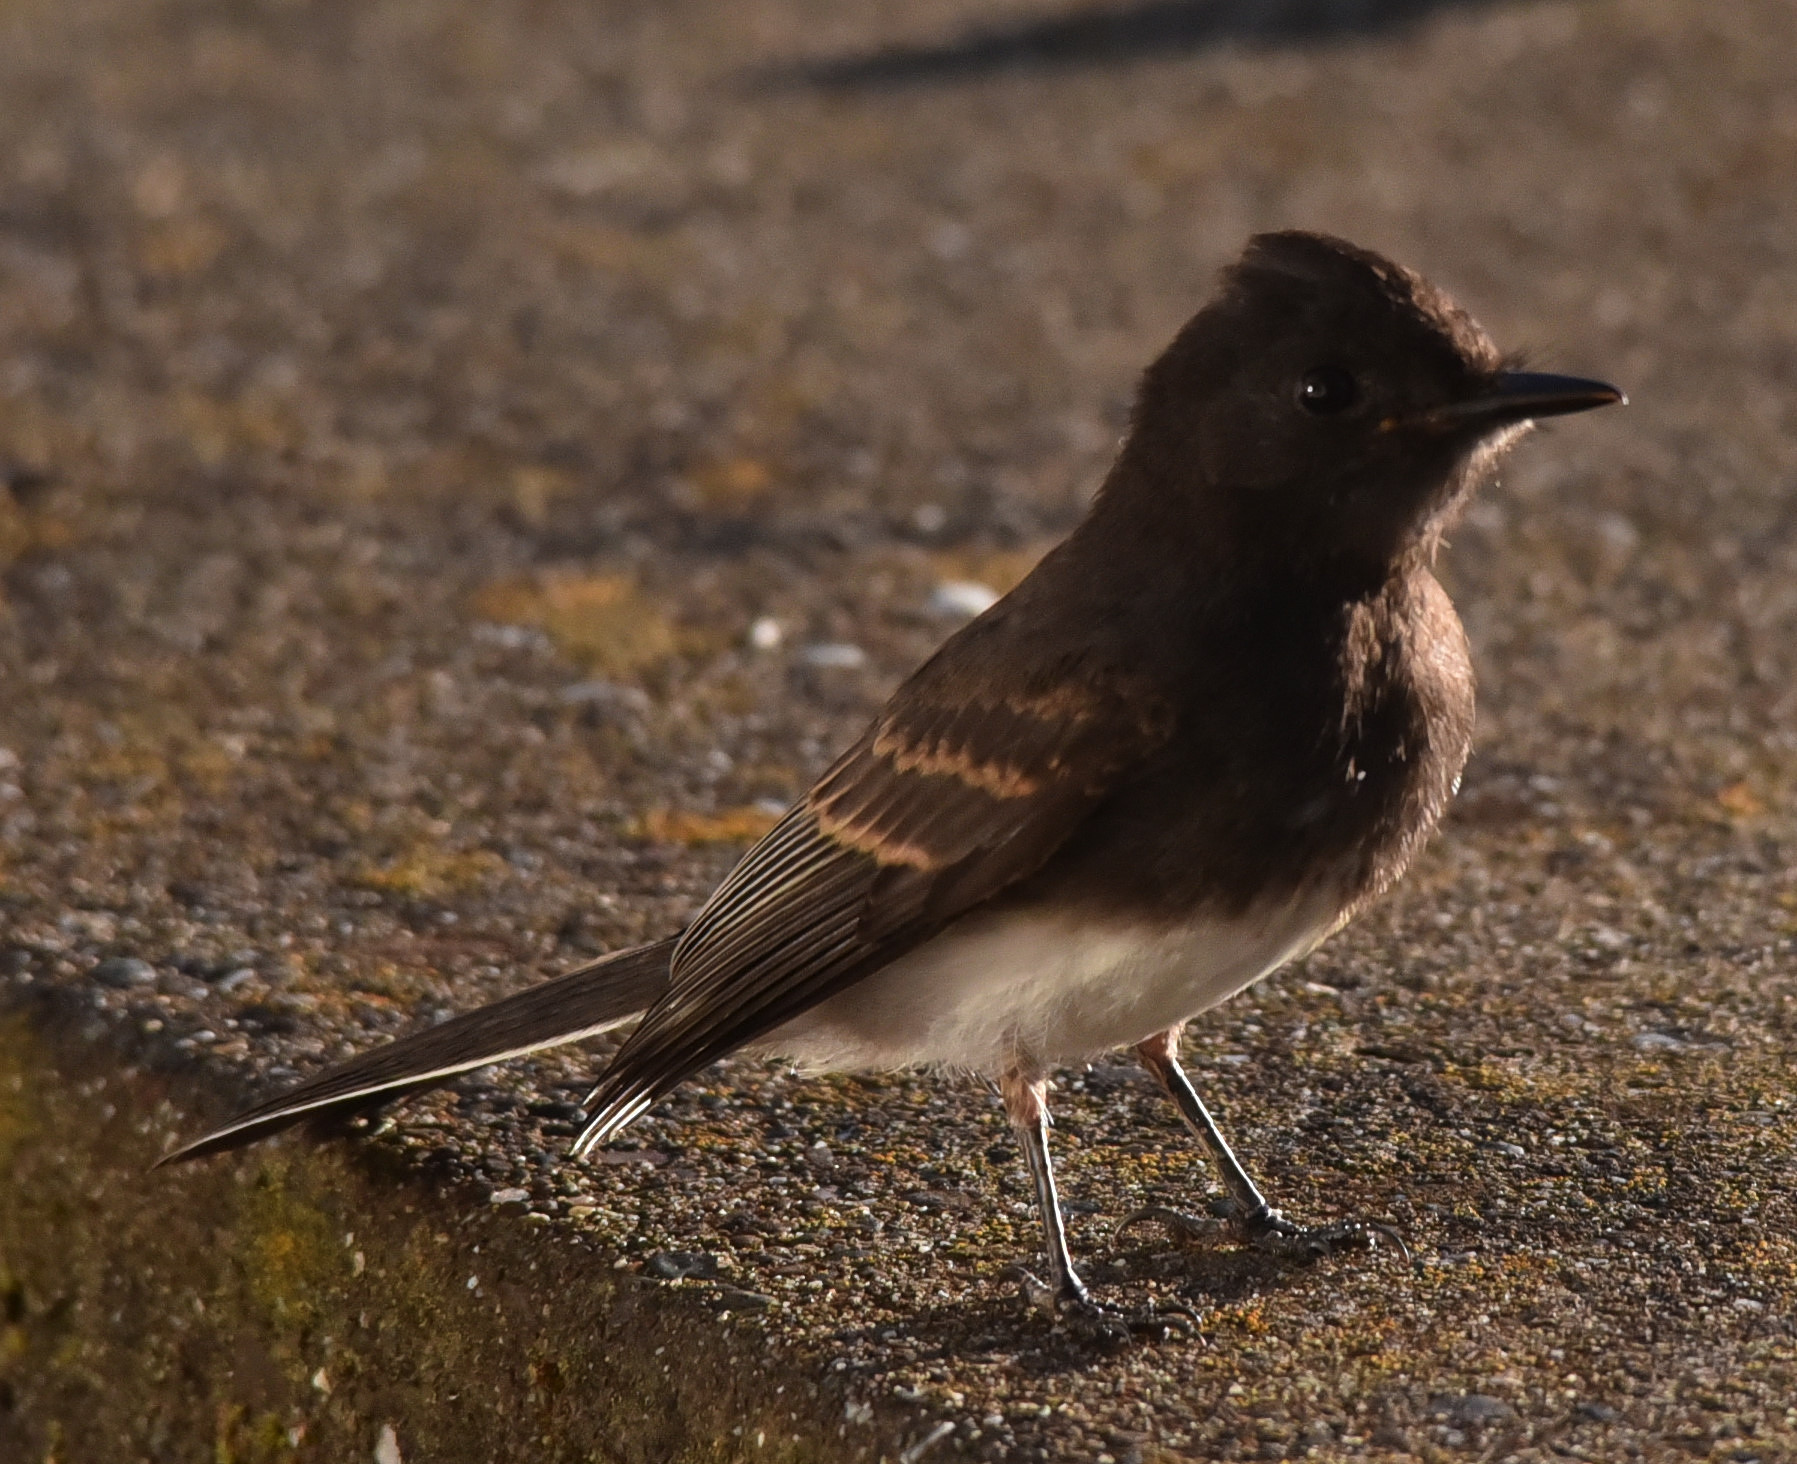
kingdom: Animalia
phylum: Chordata
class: Aves
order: Passeriformes
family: Tyrannidae
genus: Sayornis
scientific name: Sayornis nigricans
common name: Black phoebe
